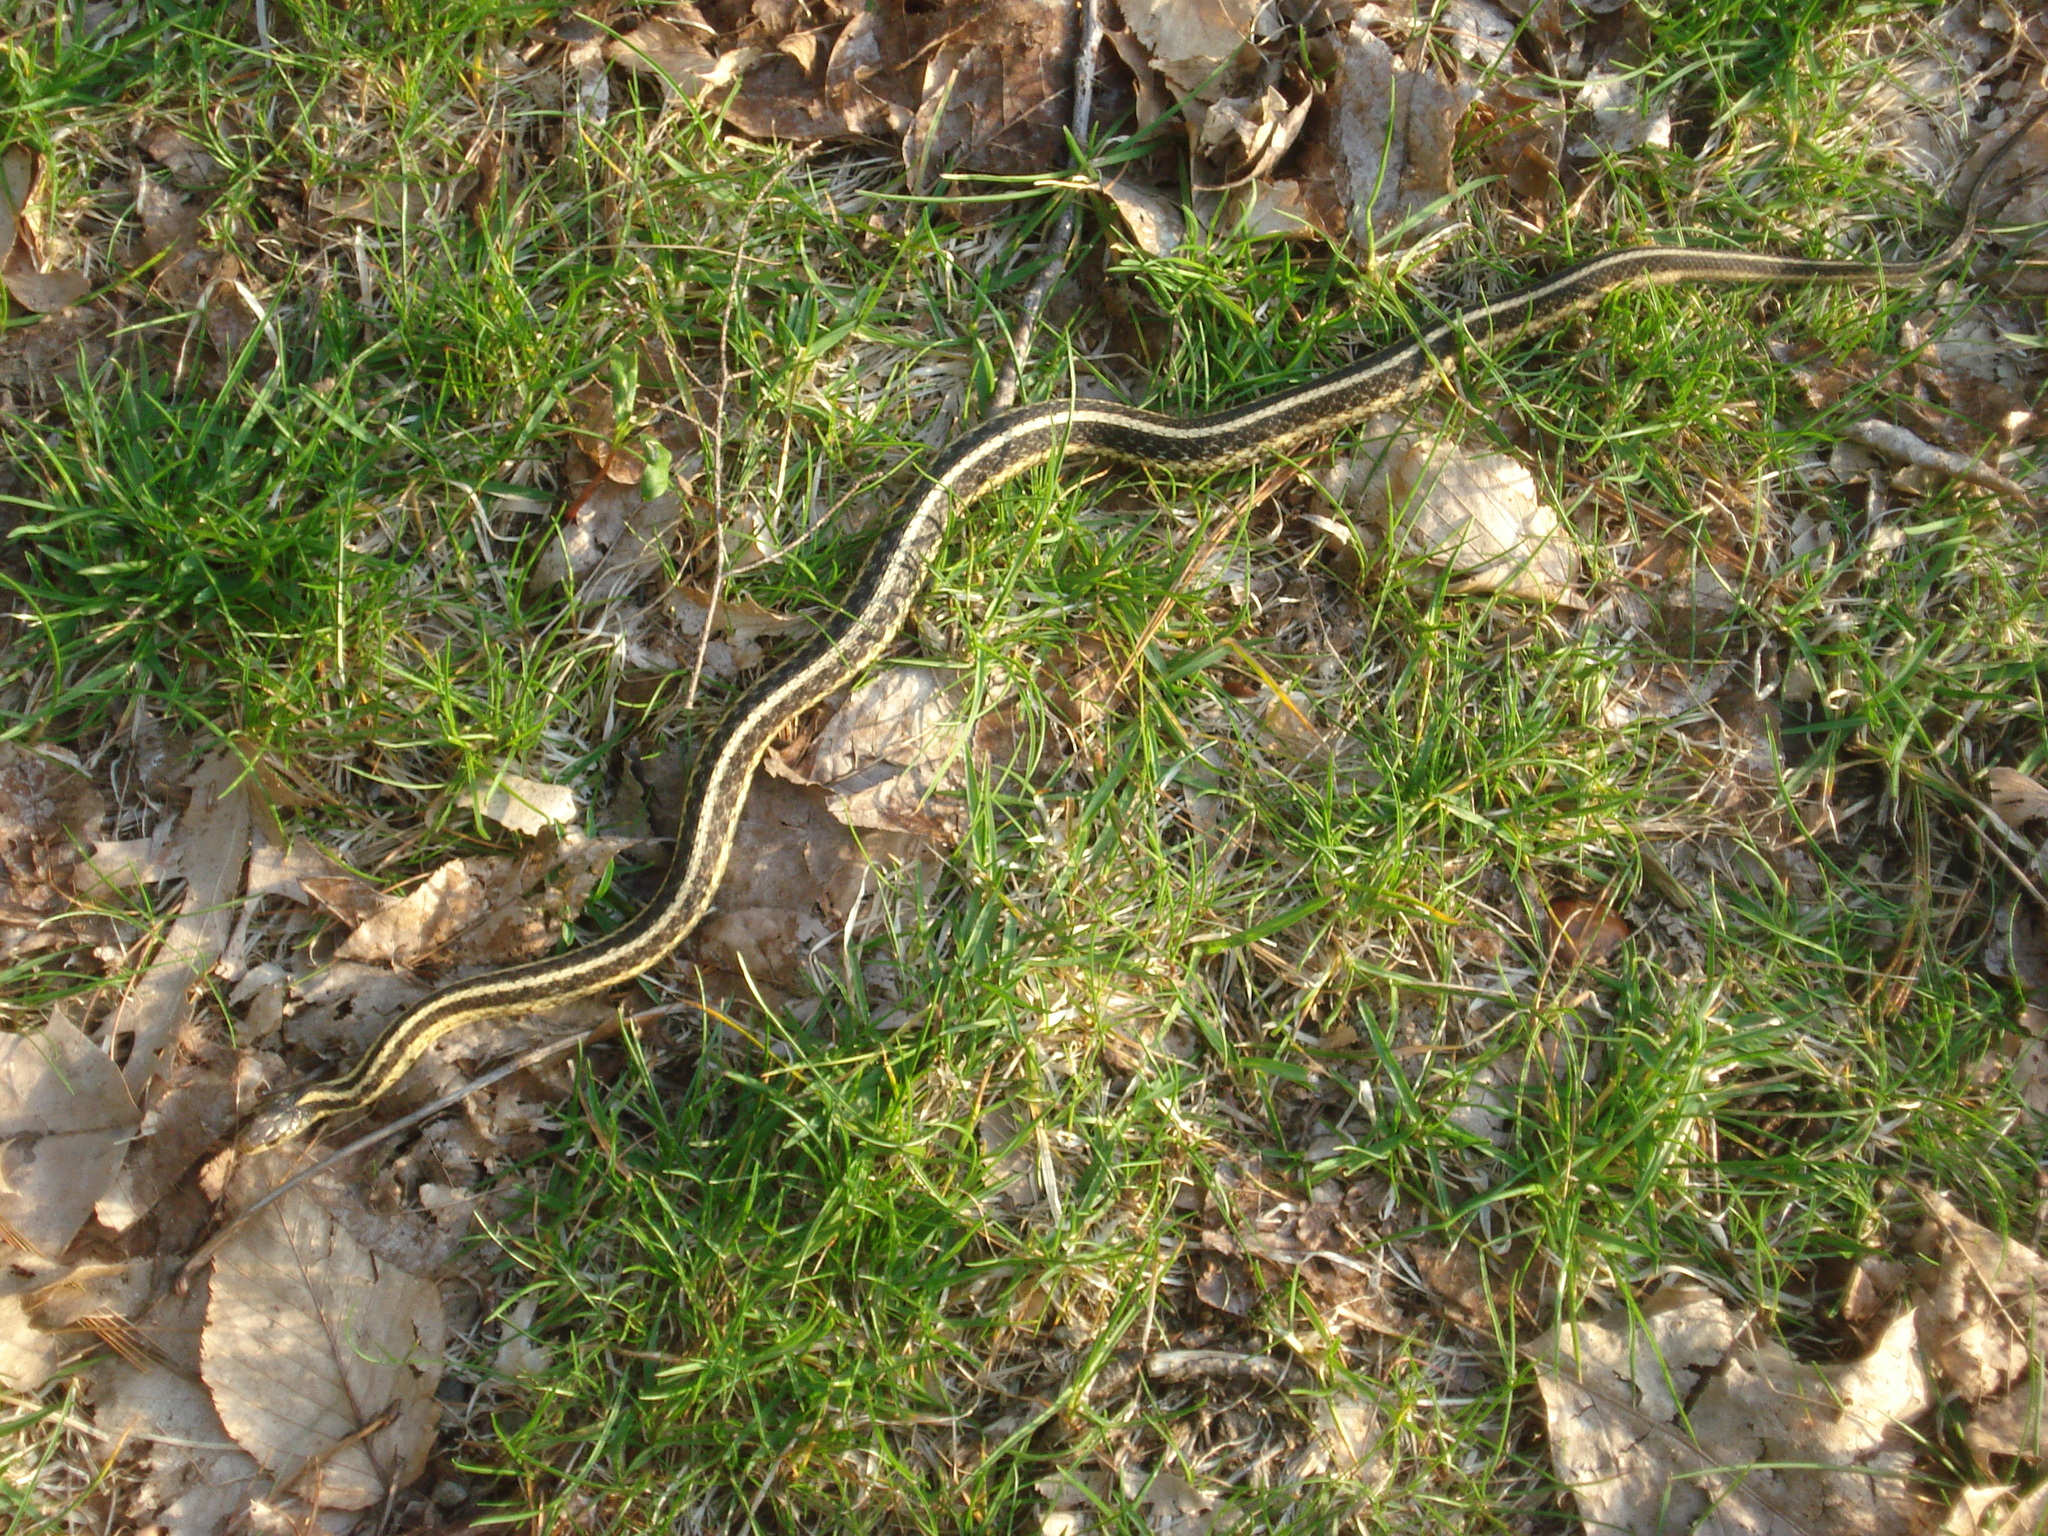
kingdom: Animalia
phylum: Chordata
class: Squamata
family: Colubridae
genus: Thamnophis
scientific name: Thamnophis sirtalis
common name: Common garter snake
